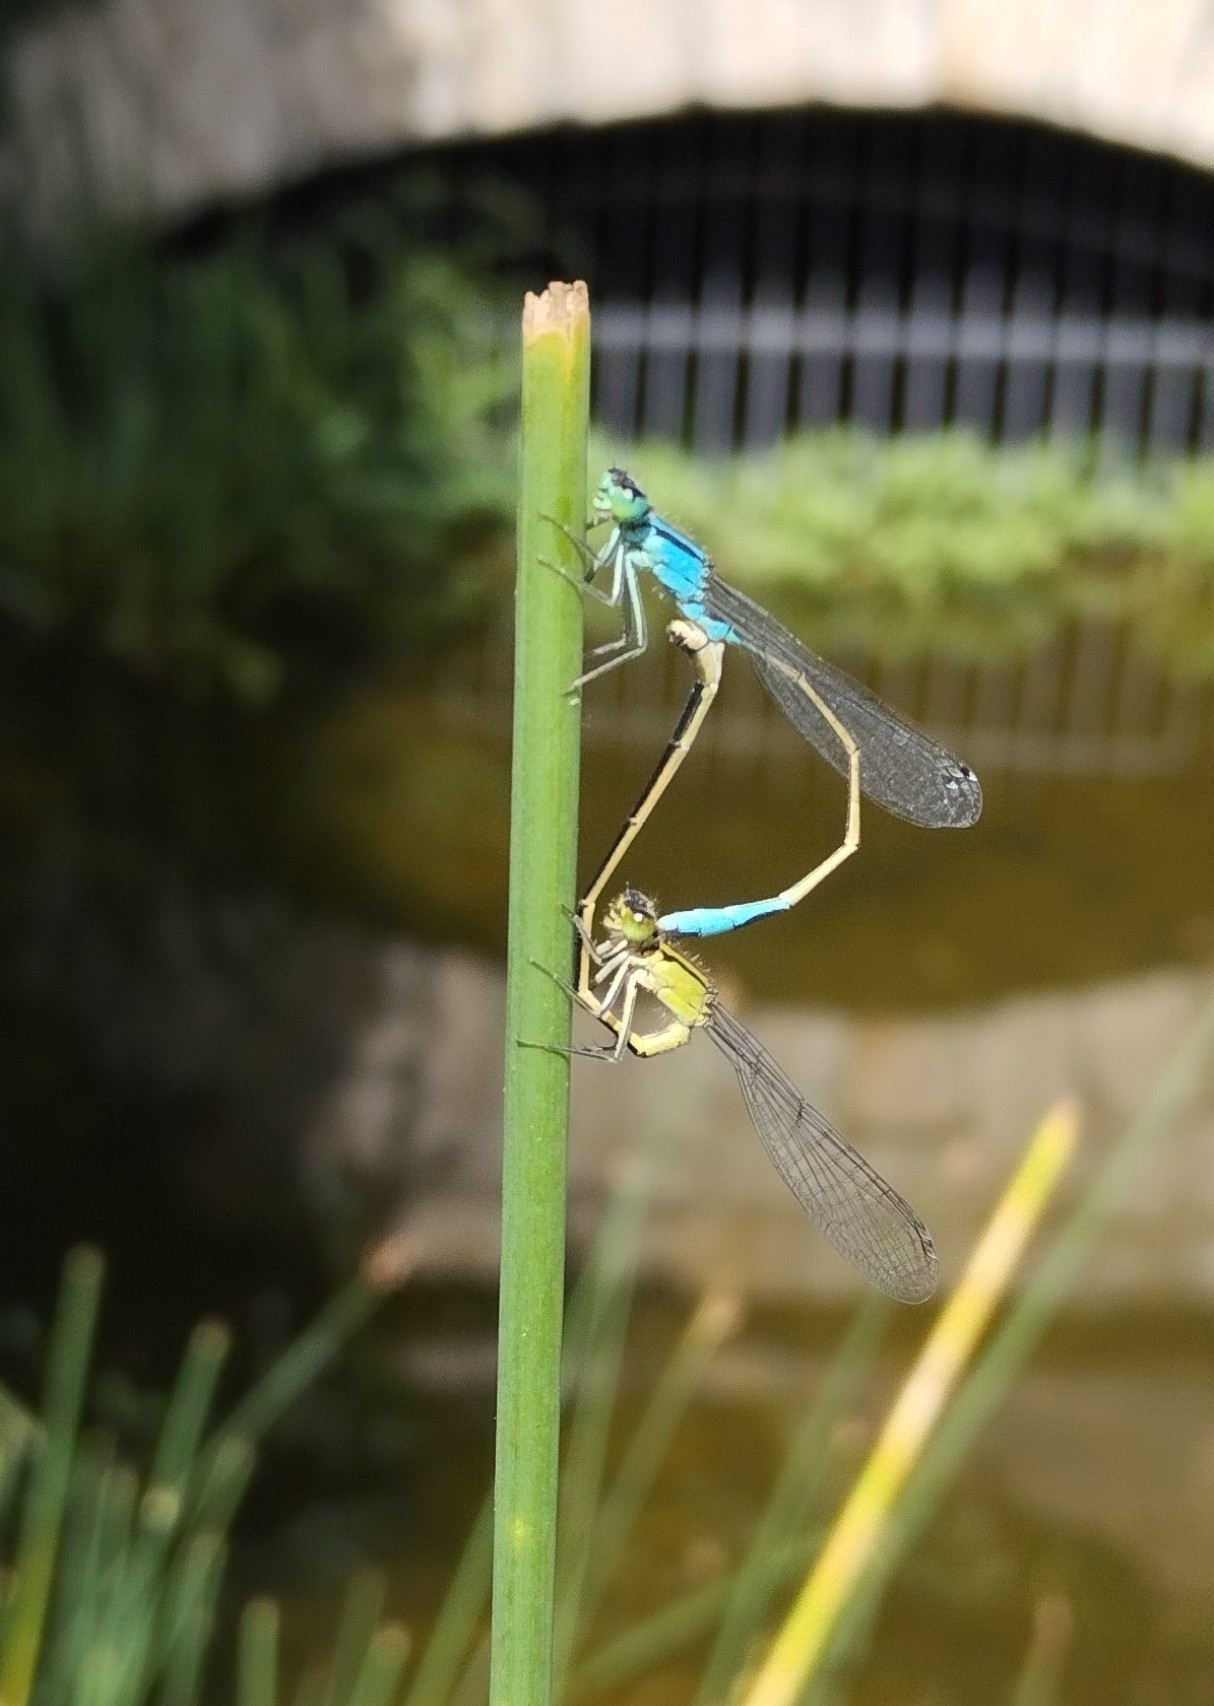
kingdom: Animalia
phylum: Arthropoda
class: Insecta
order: Odonata
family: Coenagrionidae
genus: Ischnura
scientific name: Ischnura elegans
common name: Blue-tailed damselfly
